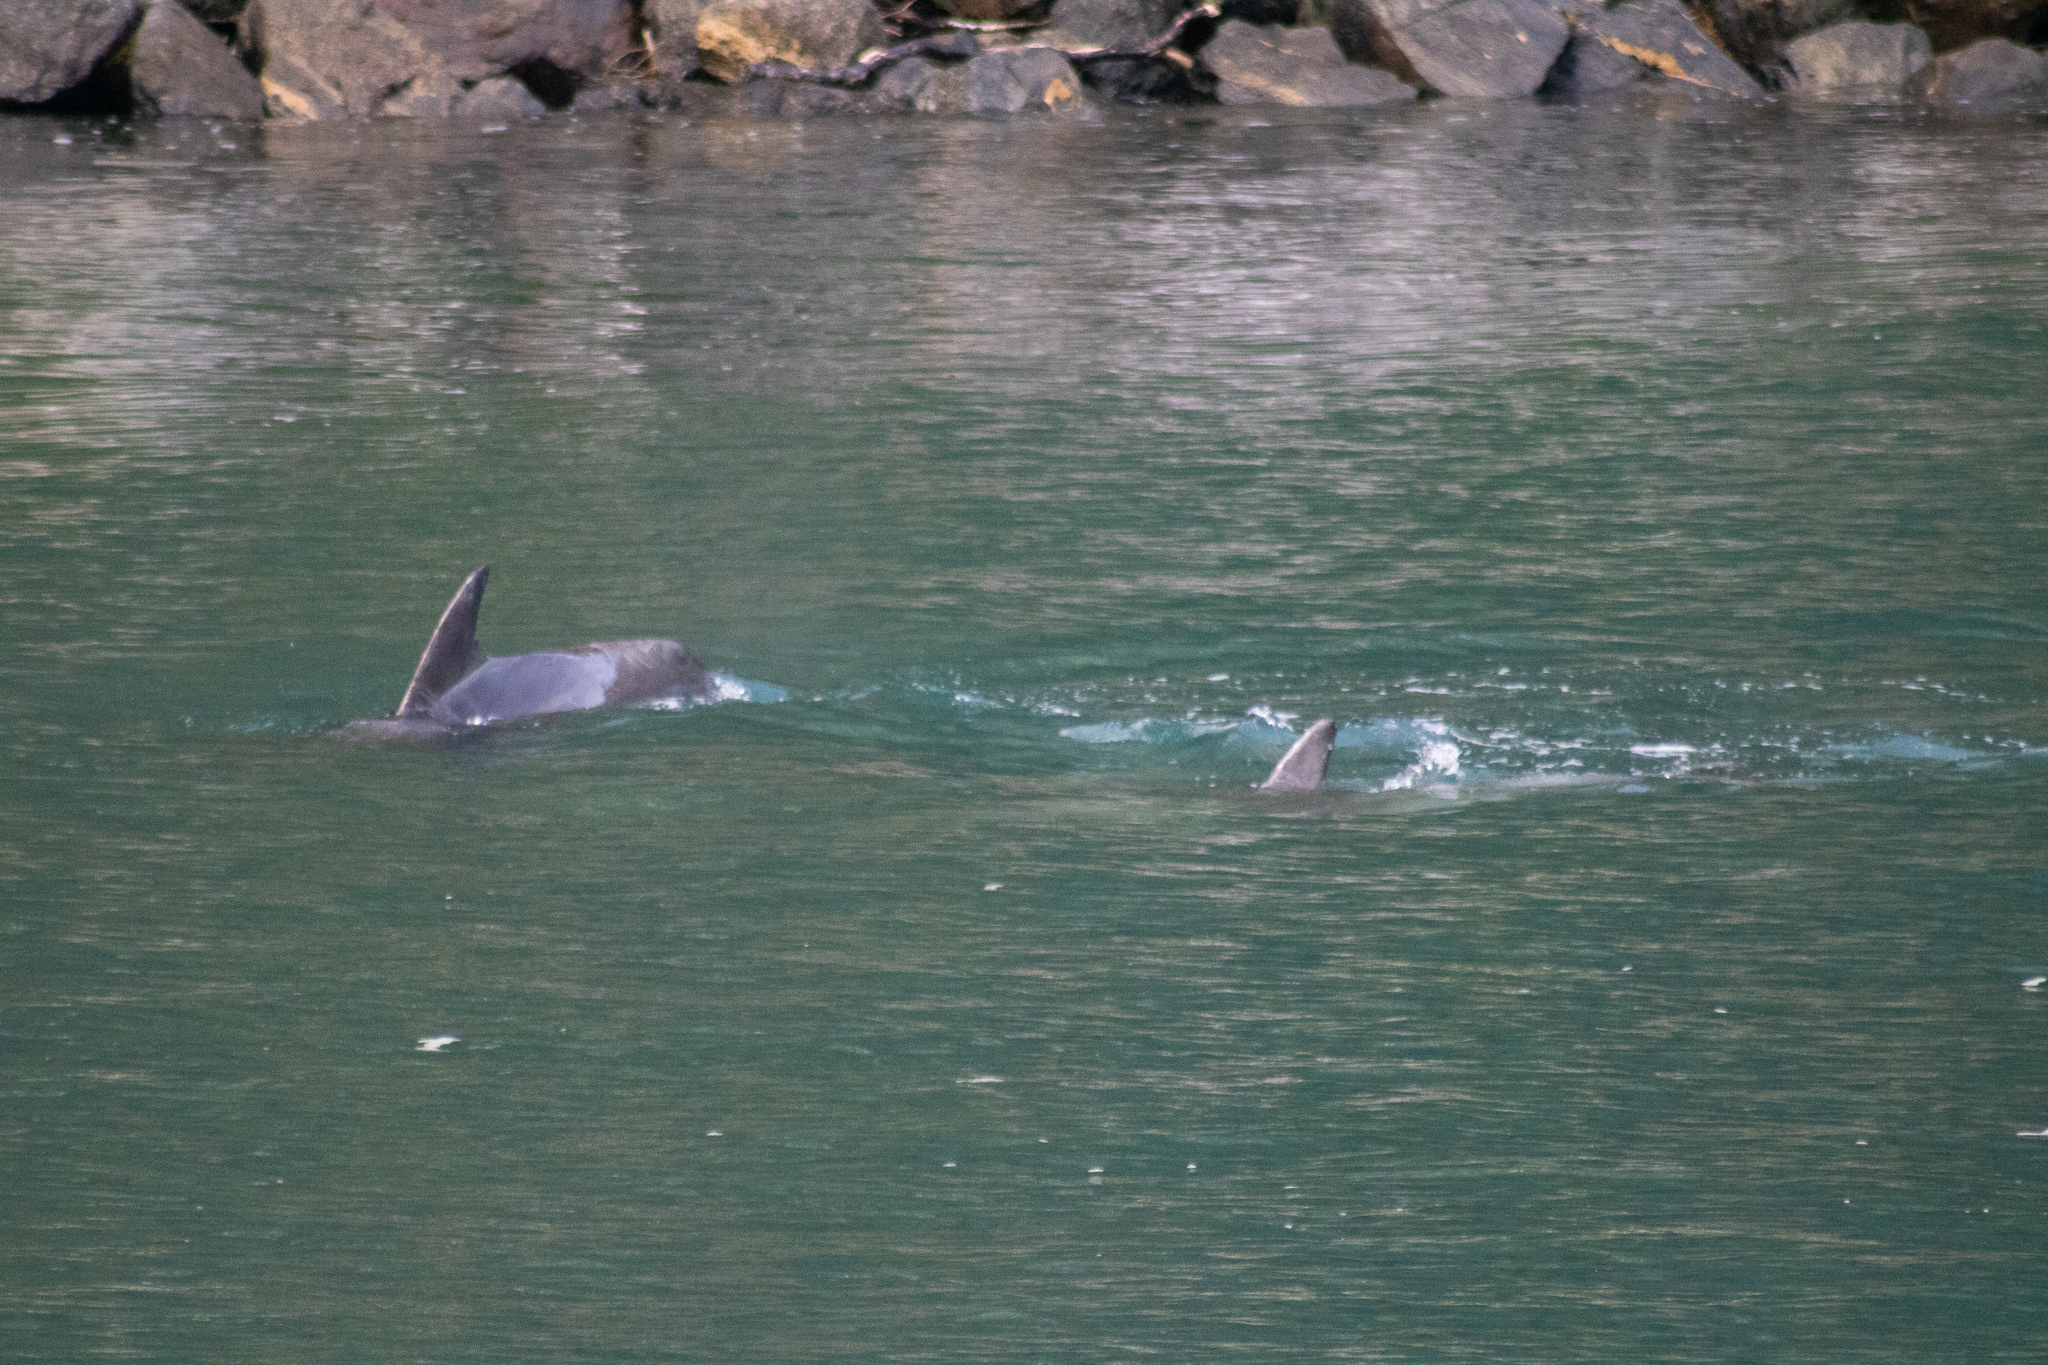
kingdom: Animalia
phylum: Chordata
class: Mammalia
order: Cetacea
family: Delphinidae
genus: Tursiops
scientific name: Tursiops truncatus
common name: Bottlenose dolphin
